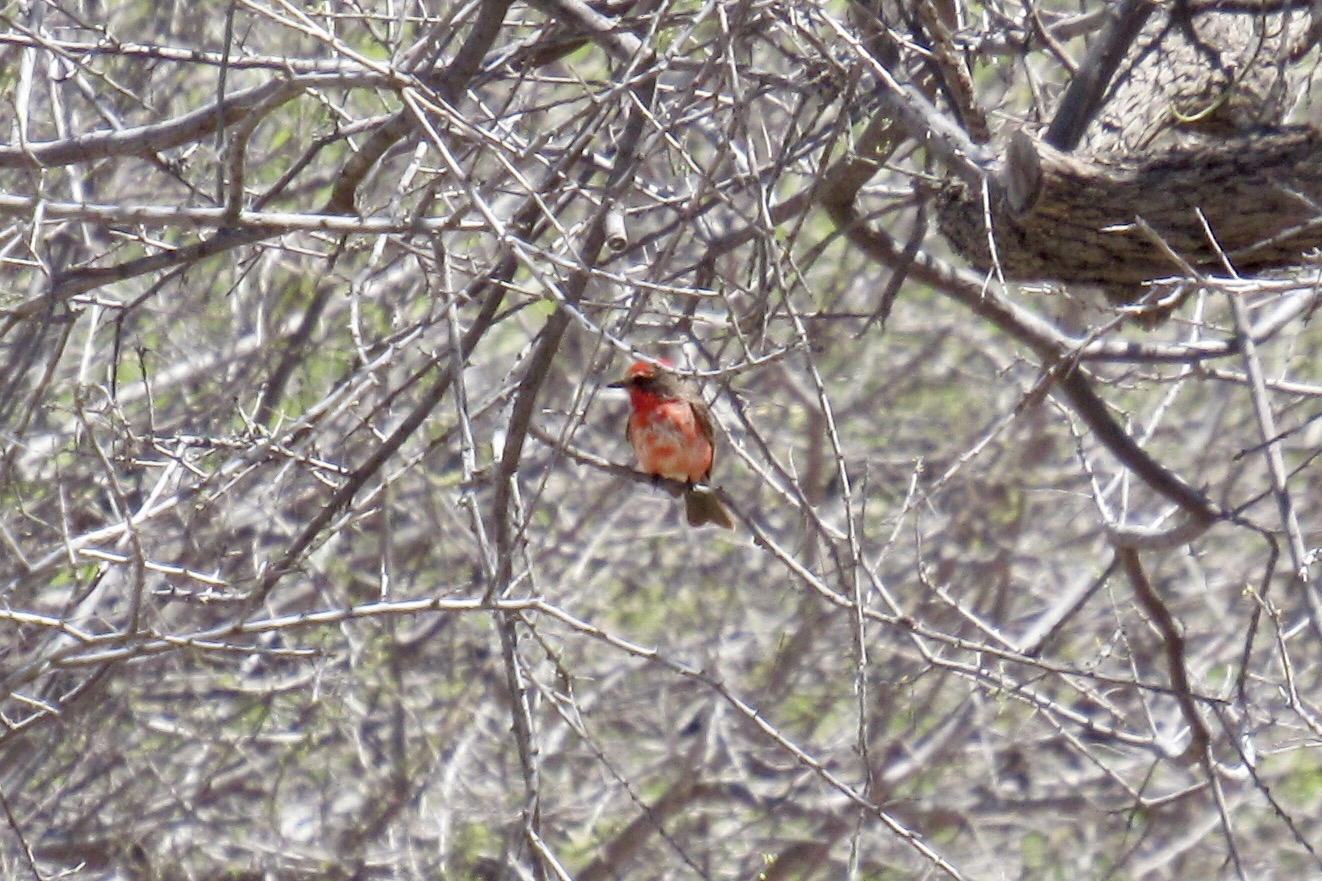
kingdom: Animalia
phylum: Chordata
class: Aves
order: Passeriformes
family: Tyrannidae
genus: Pyrocephalus
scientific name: Pyrocephalus rubinus
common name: Vermilion flycatcher
